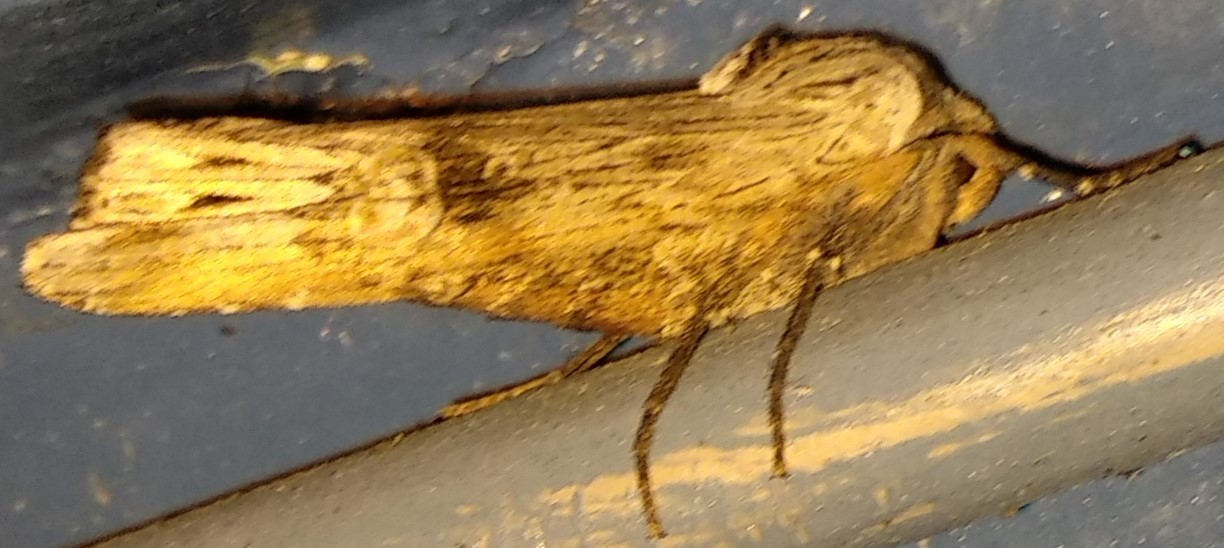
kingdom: Animalia
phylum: Arthropoda
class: Insecta
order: Lepidoptera
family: Noctuidae
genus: Xylena
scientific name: Xylena germana
